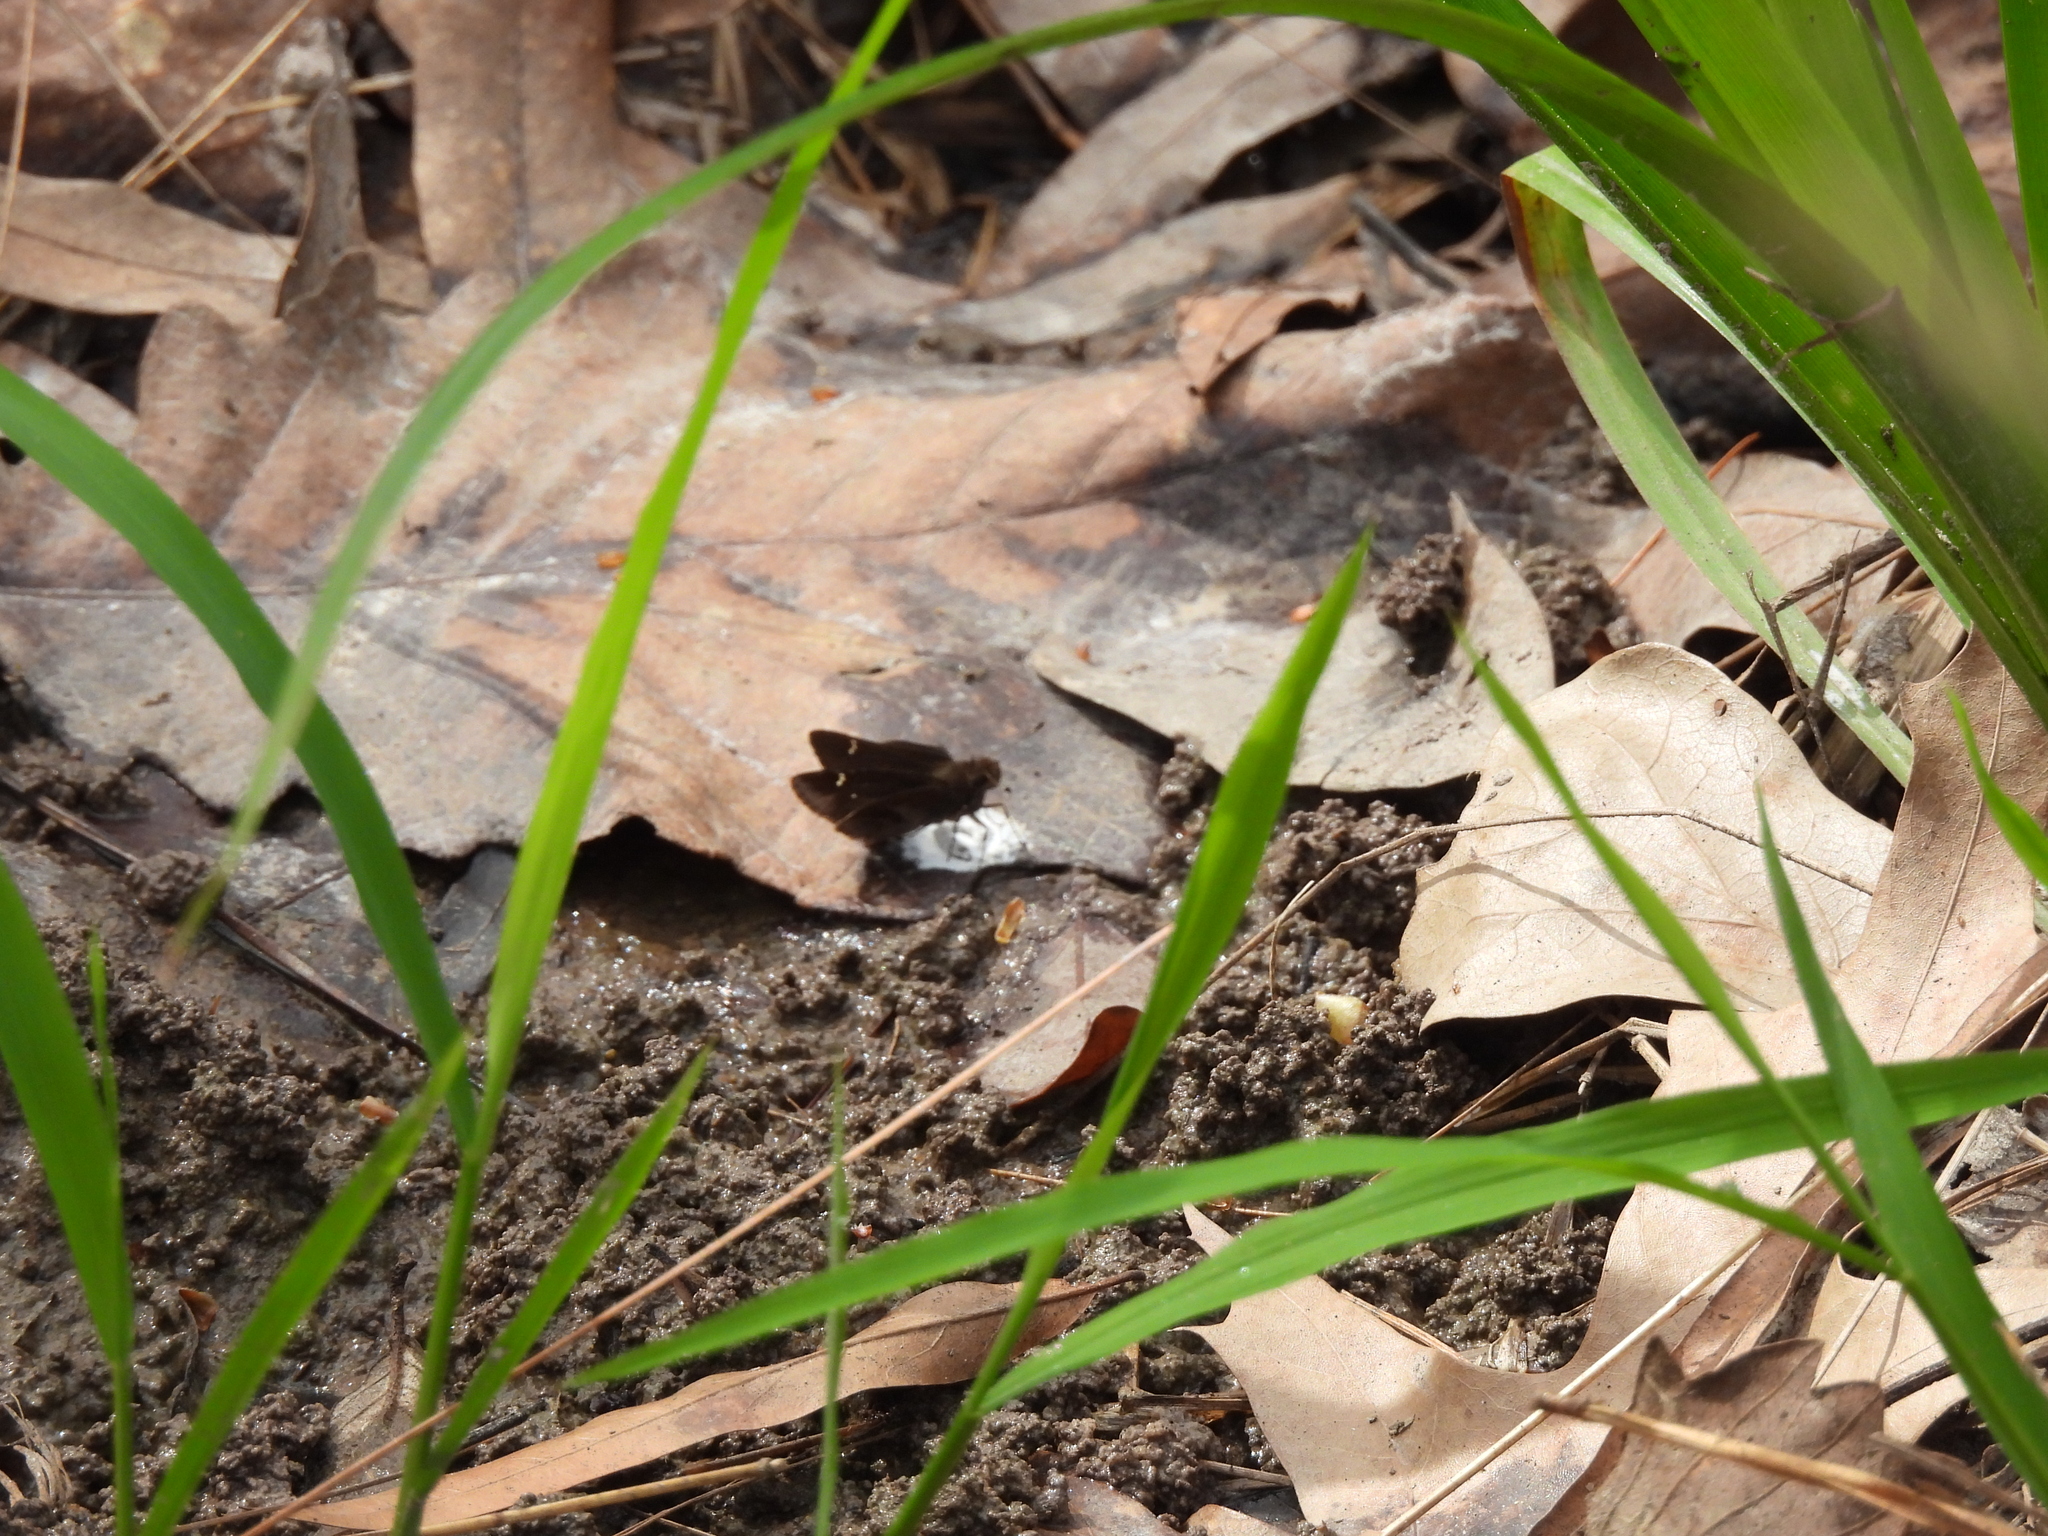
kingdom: Animalia
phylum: Arthropoda
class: Insecta
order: Lepidoptera
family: Hesperiidae
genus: Lerema
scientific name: Lerema accius
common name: Clouded skipper
